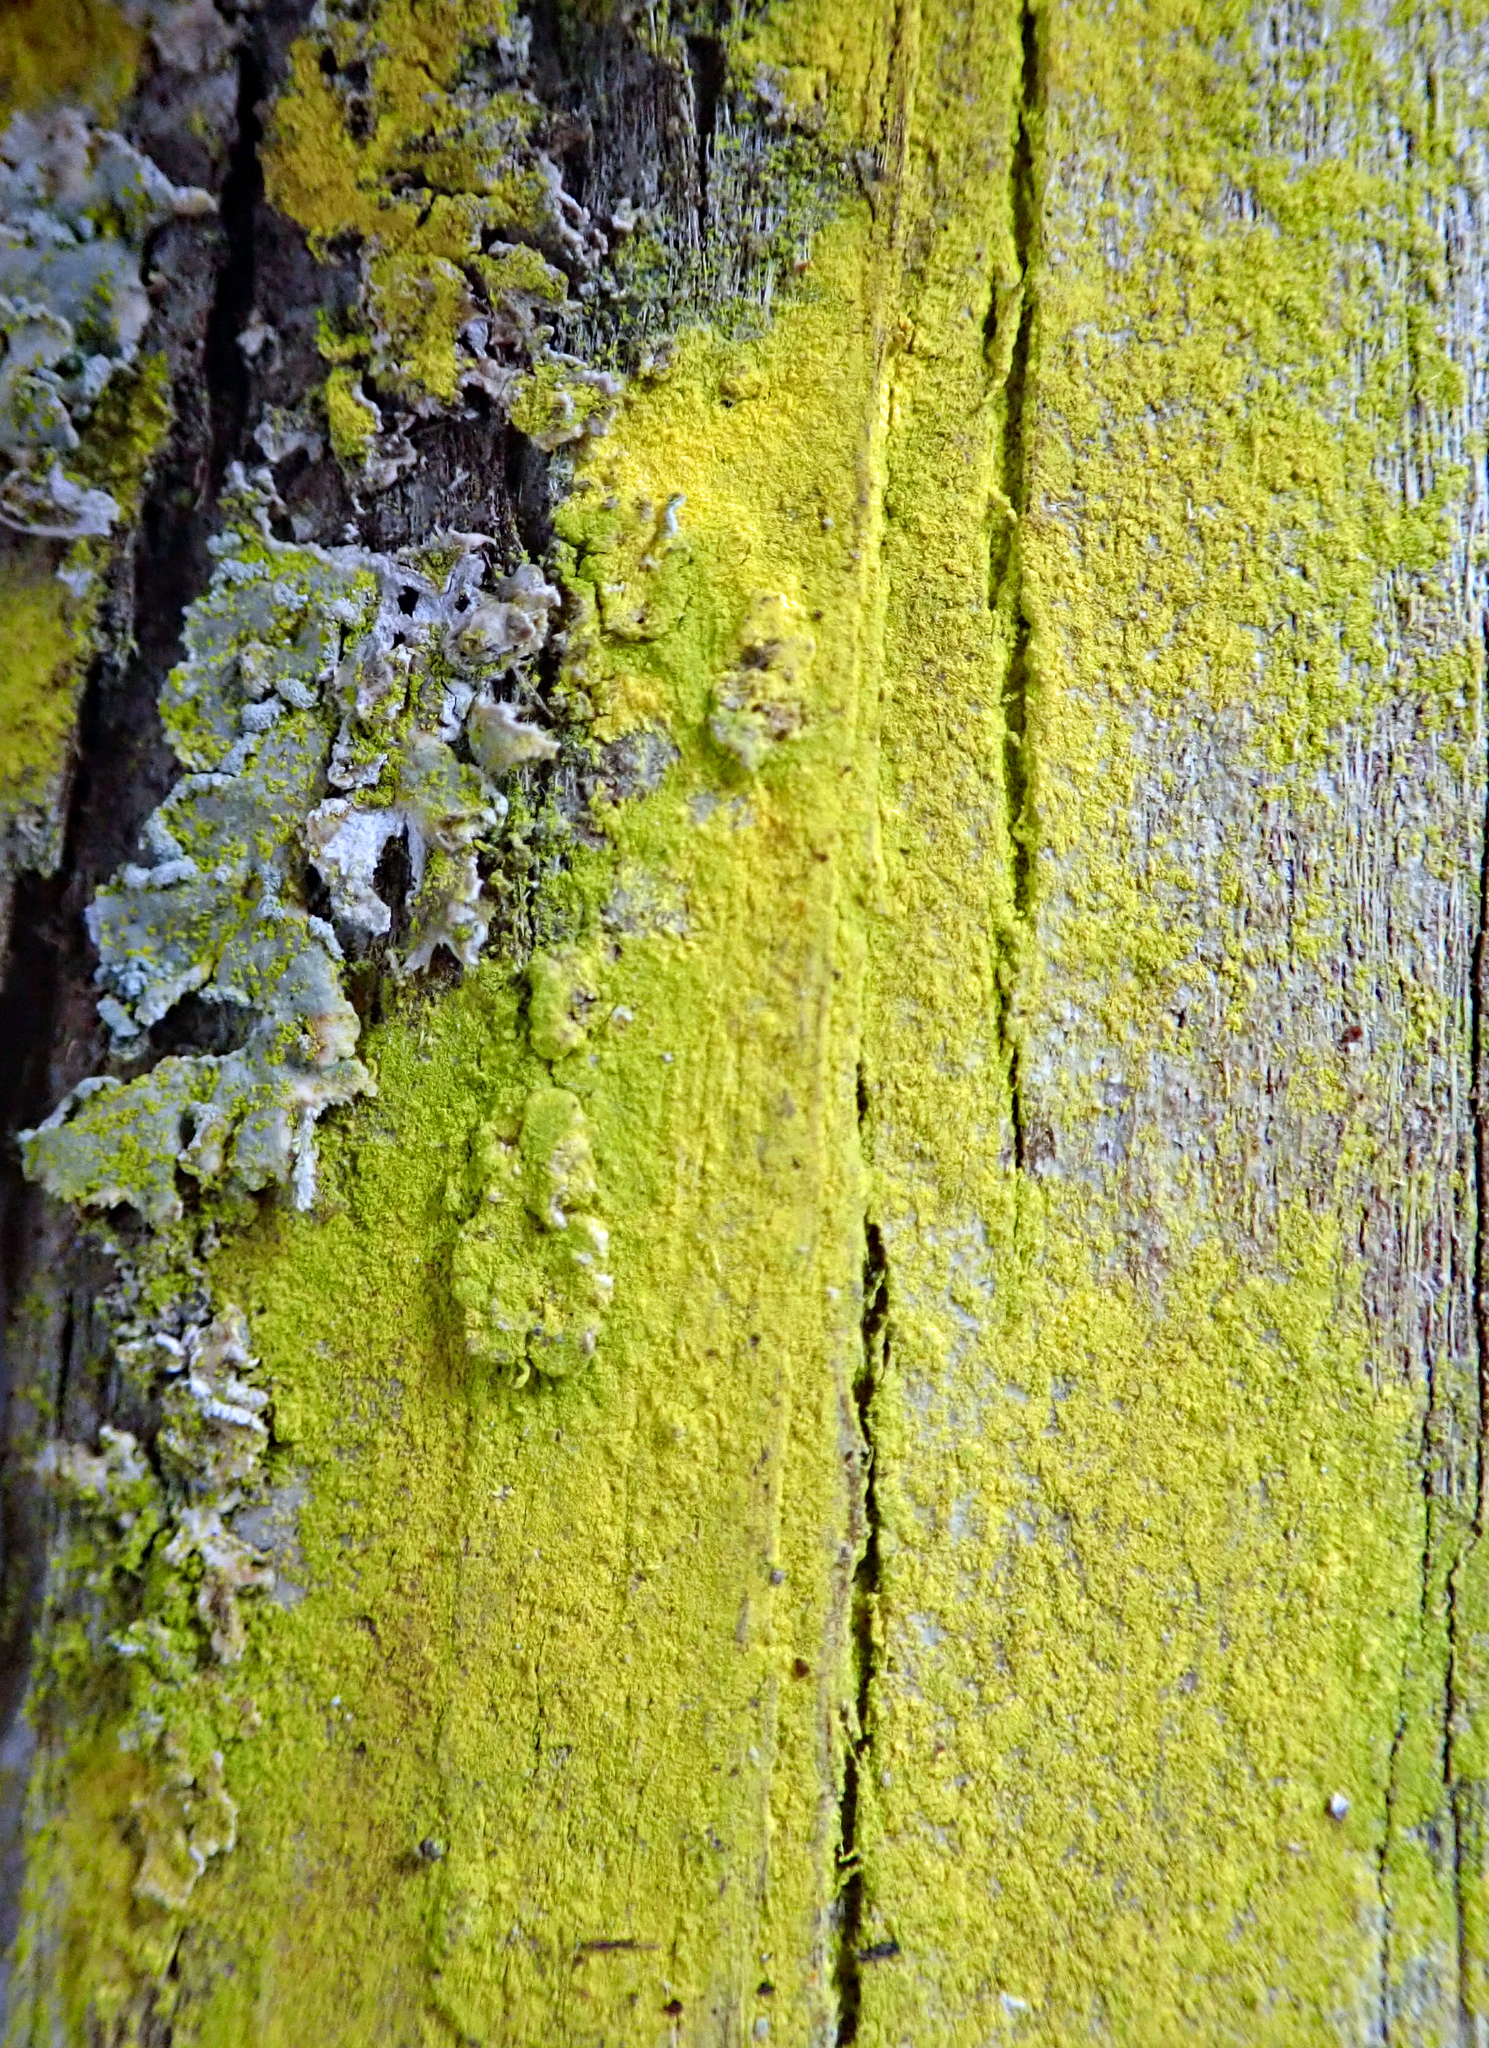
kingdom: Fungi
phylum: Ascomycota
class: Arthoniomycetes
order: Arthoniales
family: Chrysotrichaceae
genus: Chrysothrix
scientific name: Chrysothrix xanthina
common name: Common gold-dust
